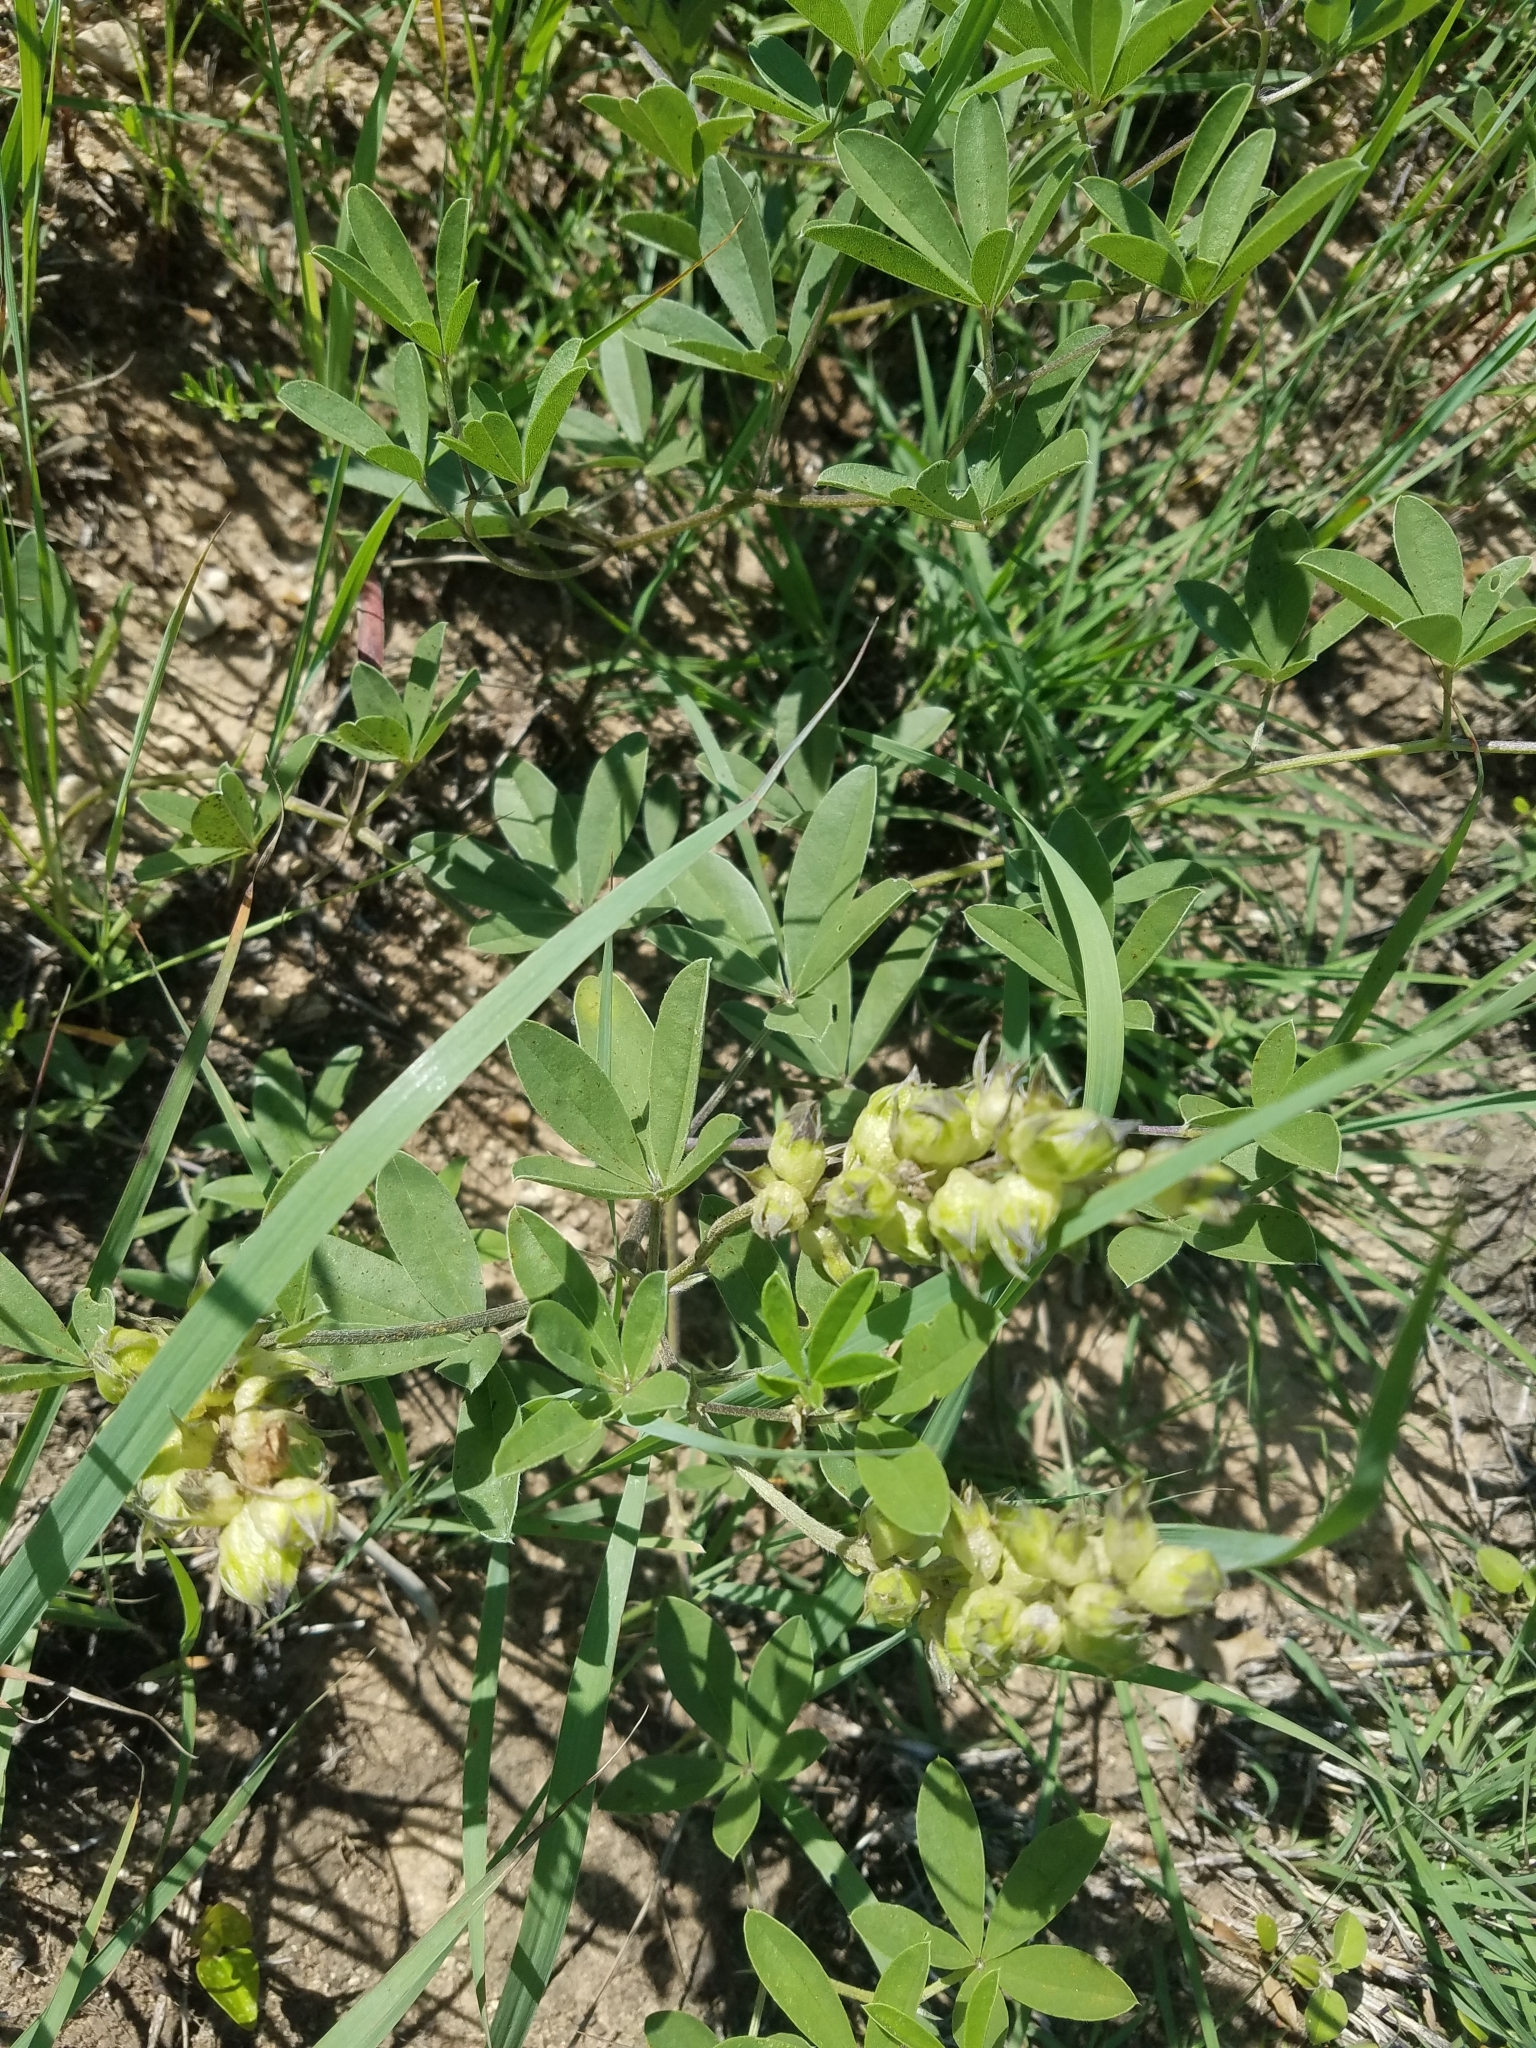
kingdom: Plantae
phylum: Tracheophyta
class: Magnoliopsida
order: Fabales
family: Fabaceae
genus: Pediomelum
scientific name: Pediomelum cuspidatum
